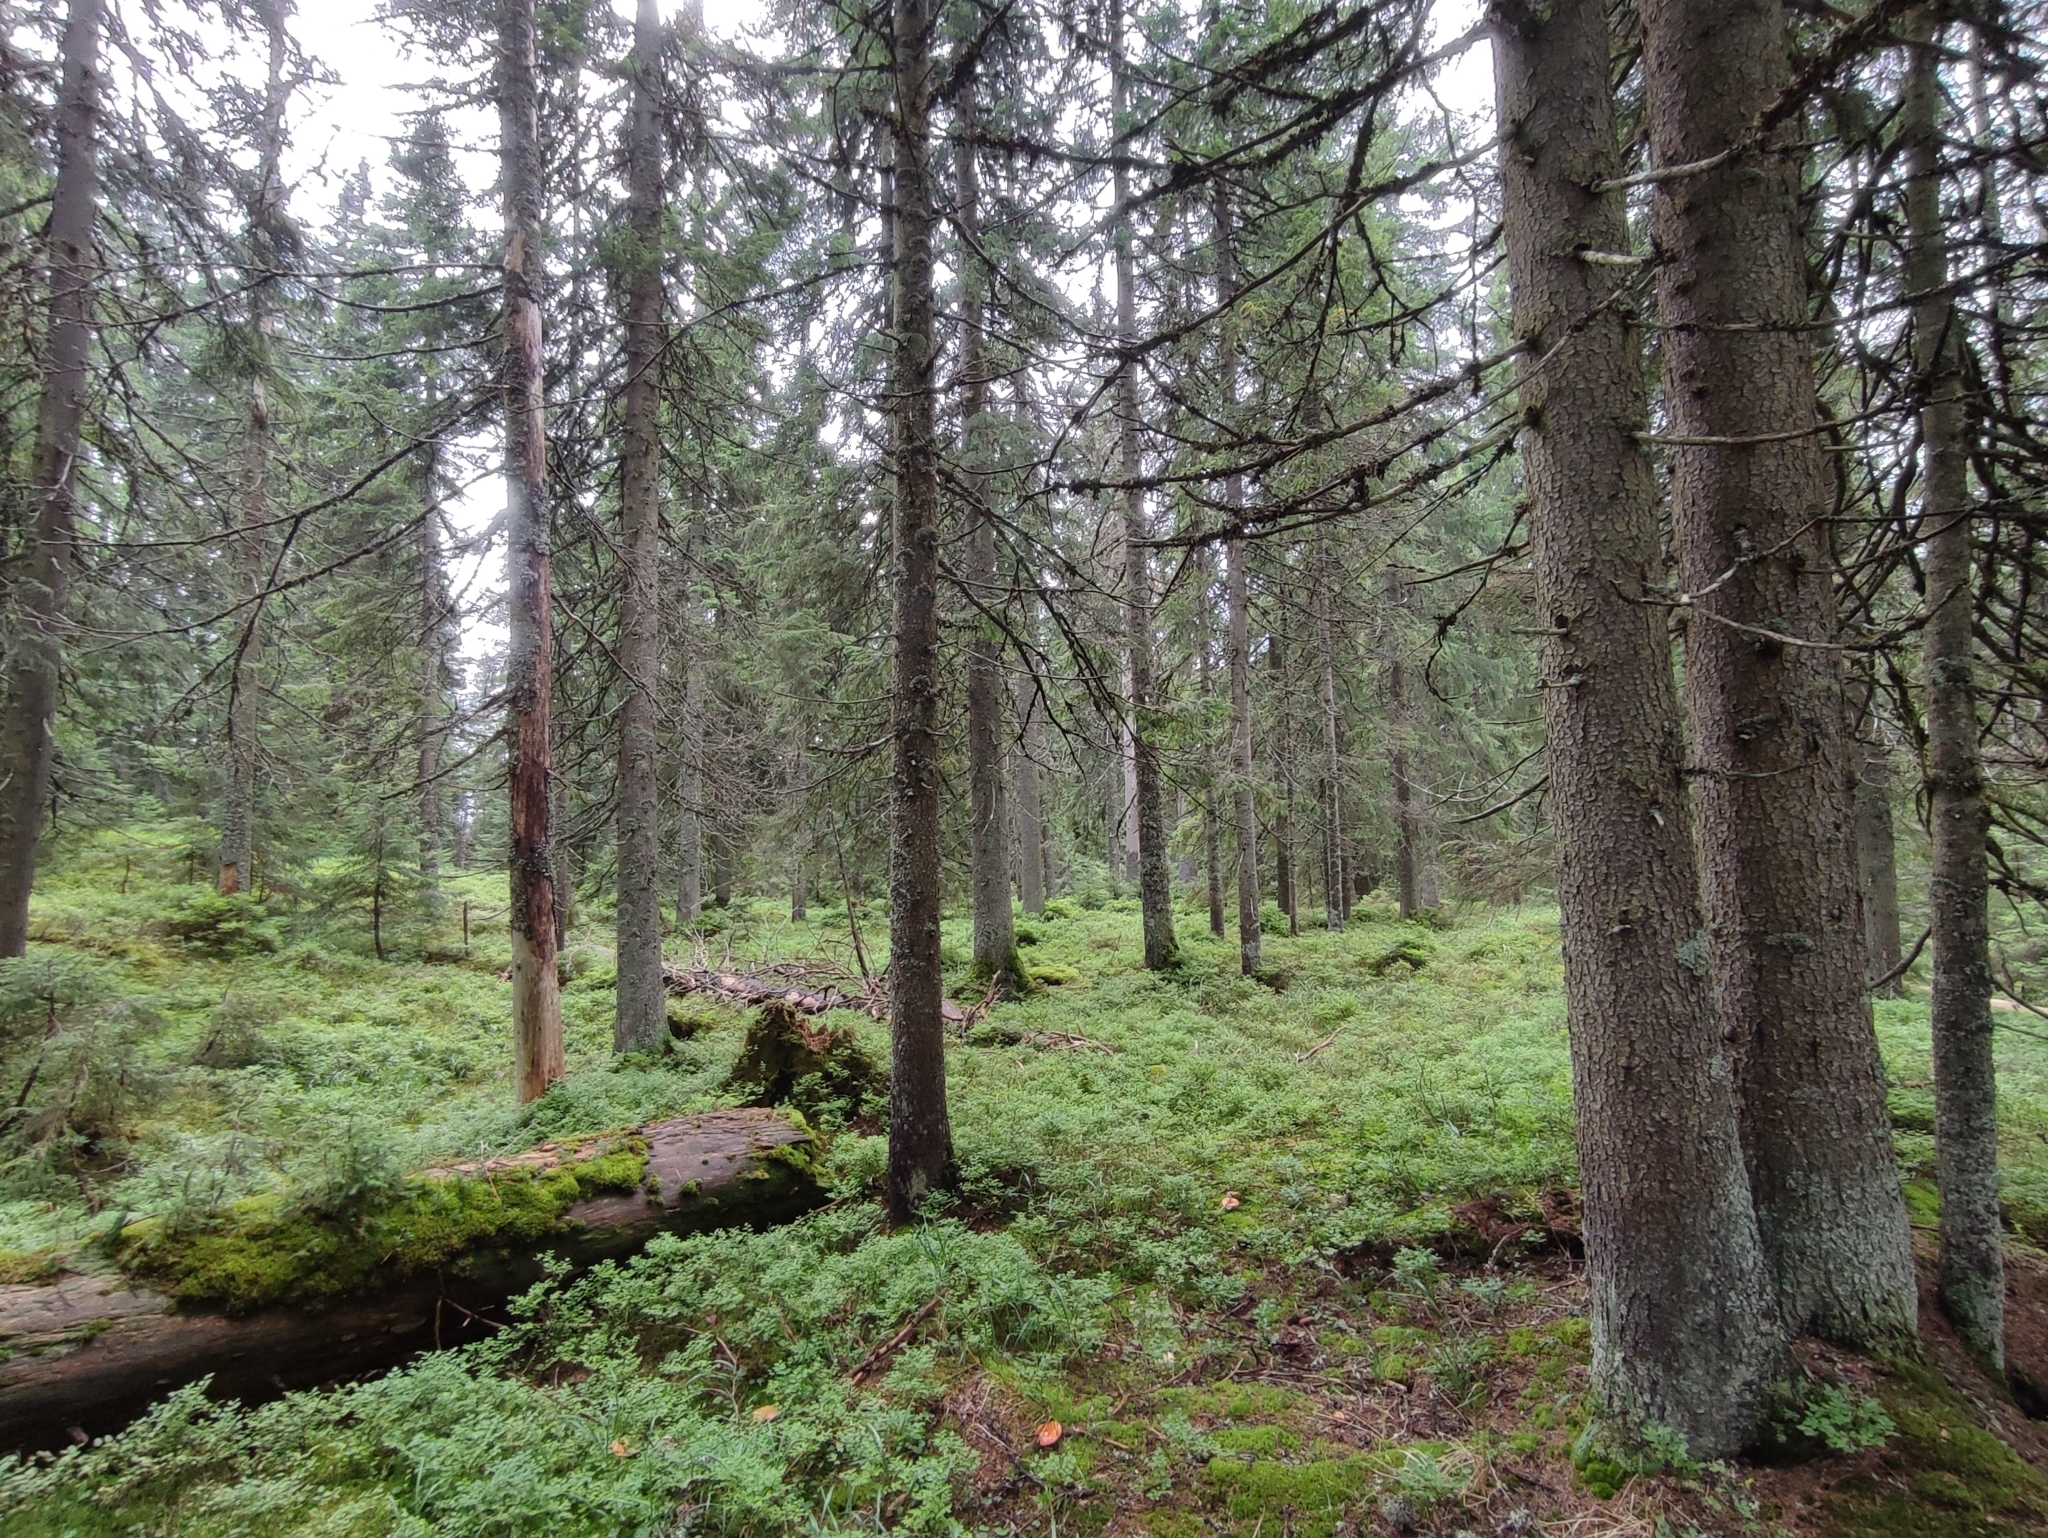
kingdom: Plantae
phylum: Tracheophyta
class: Pinopsida
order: Pinales
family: Pinaceae
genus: Picea
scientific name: Picea abies
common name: Norway spruce
